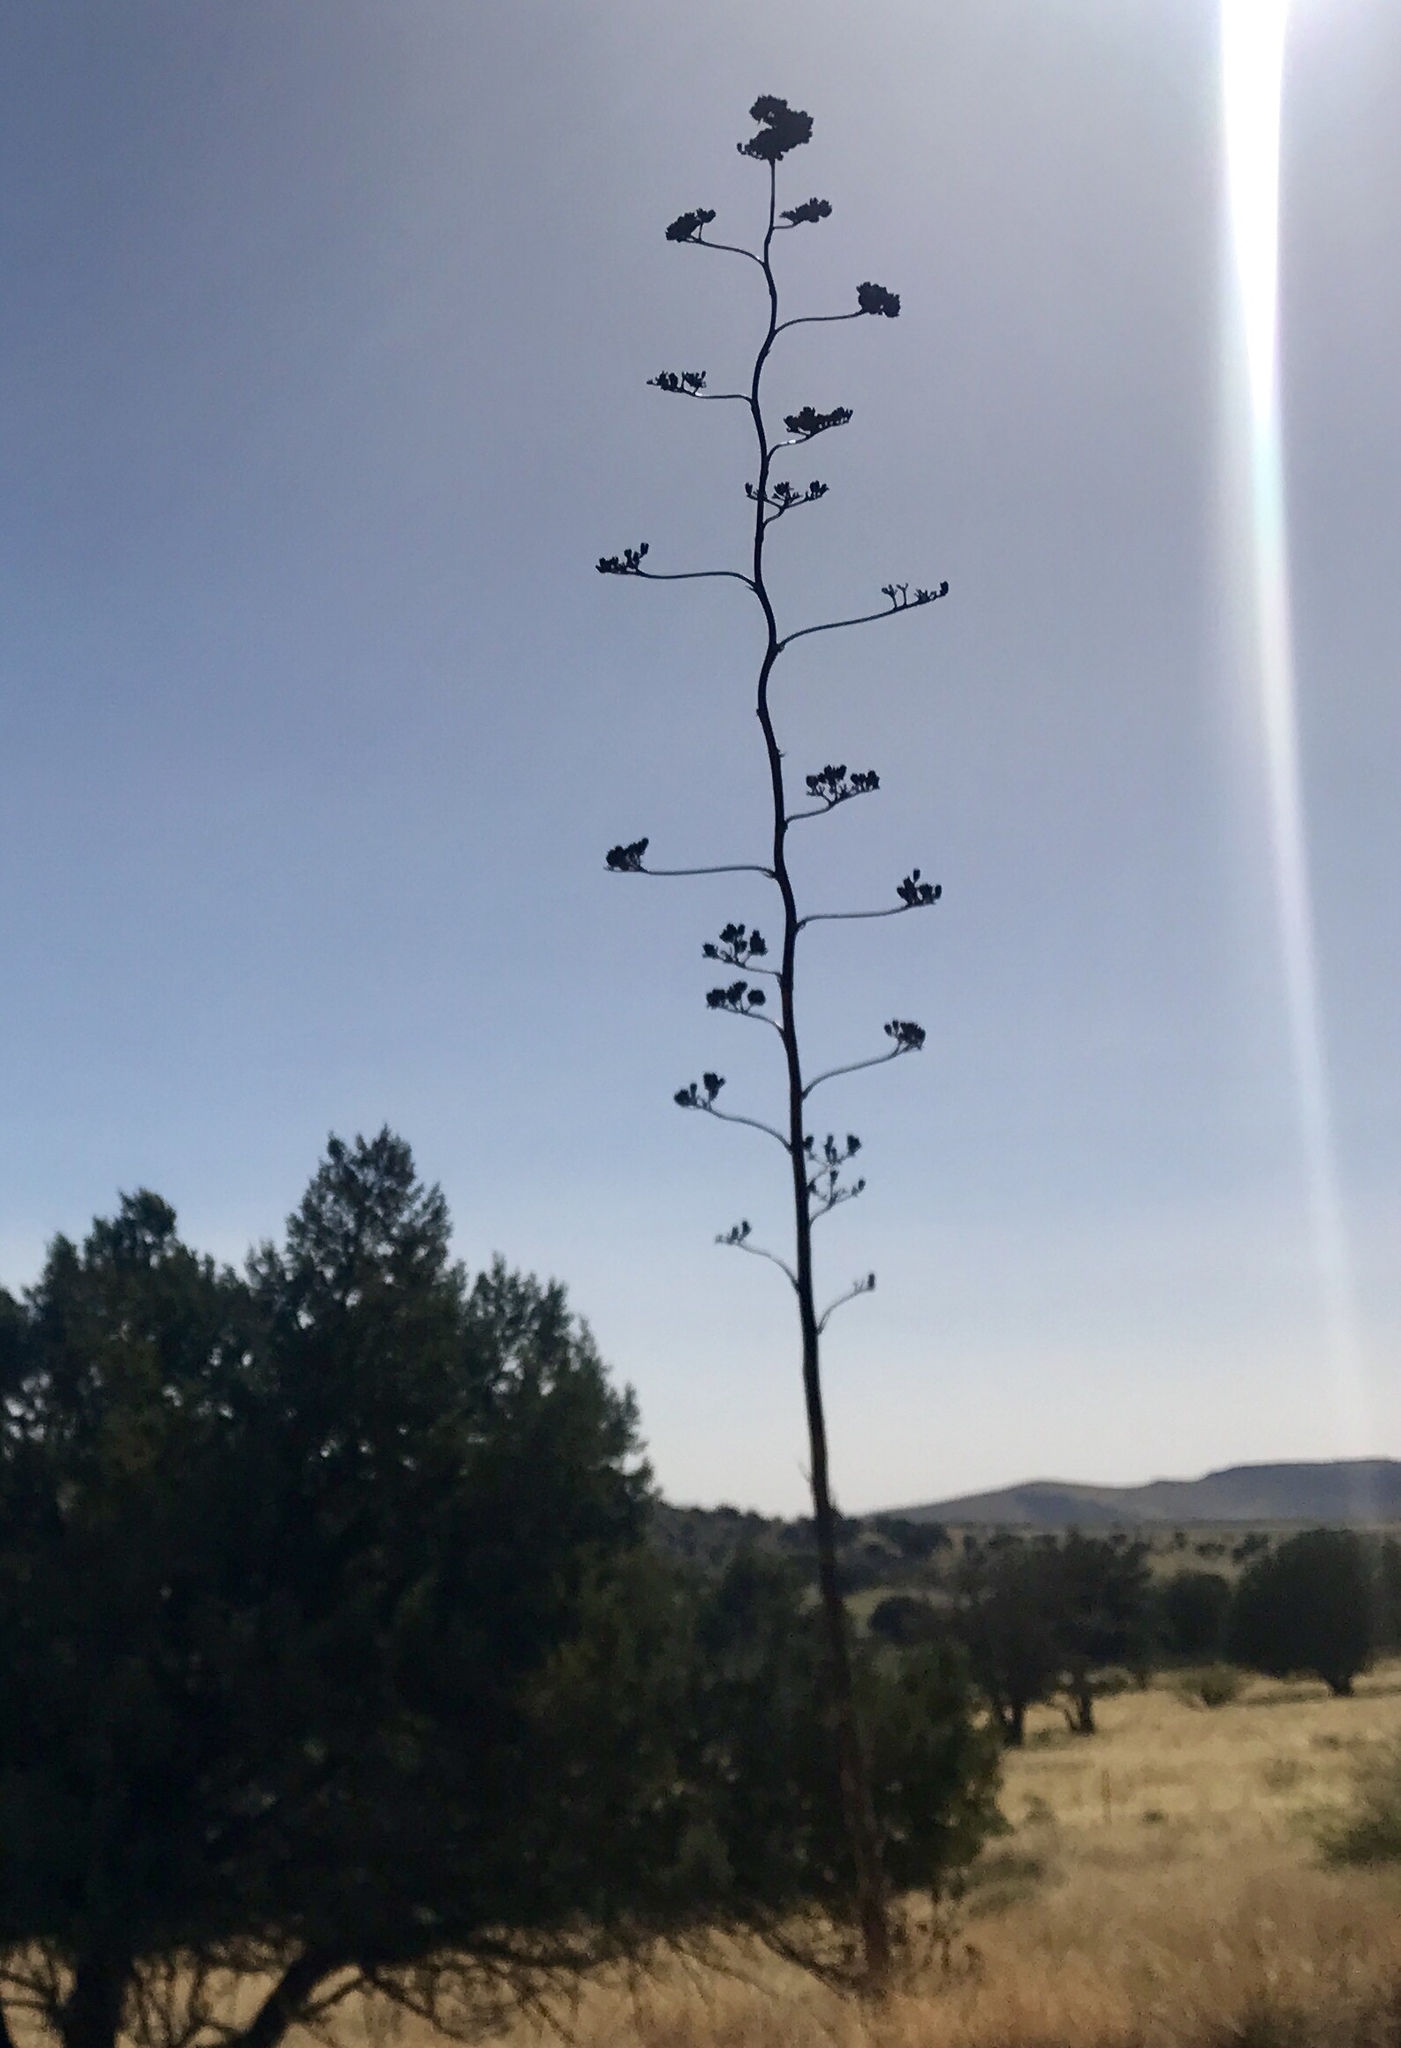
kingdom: Plantae
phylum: Tracheophyta
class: Liliopsida
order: Asparagales
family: Asparagaceae
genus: Agave
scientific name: Agave palmeri
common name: Palmer agave
